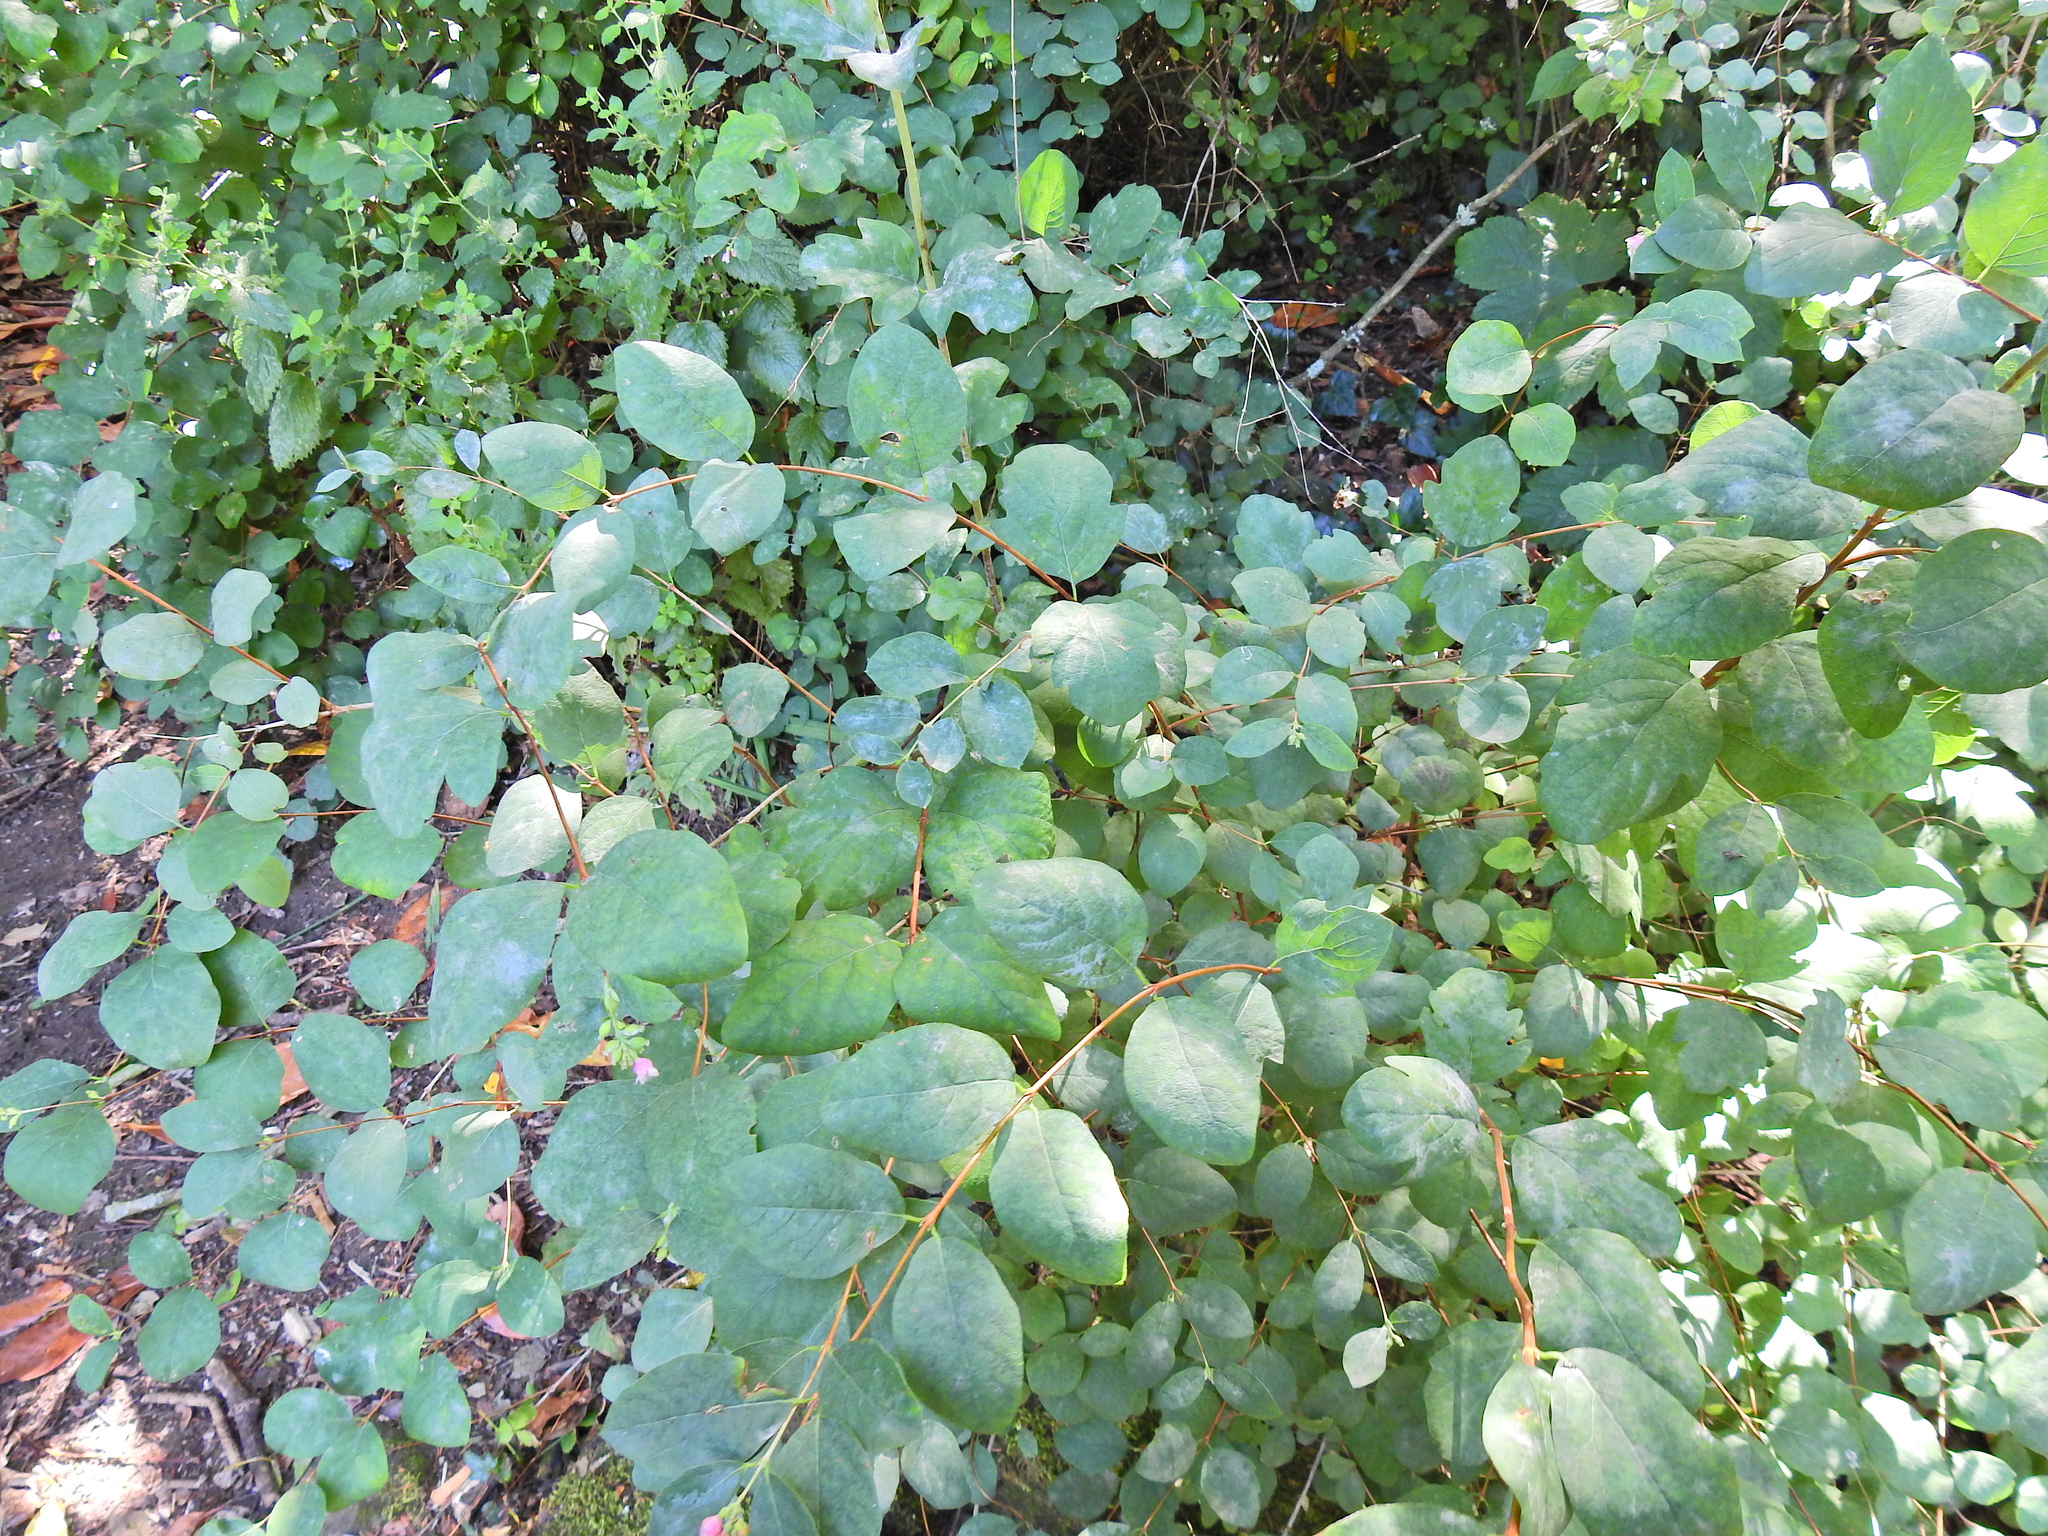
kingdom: Plantae
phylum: Tracheophyta
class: Magnoliopsida
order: Dipsacales
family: Caprifoliaceae
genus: Symphoricarpos
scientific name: Symphoricarpos albus
